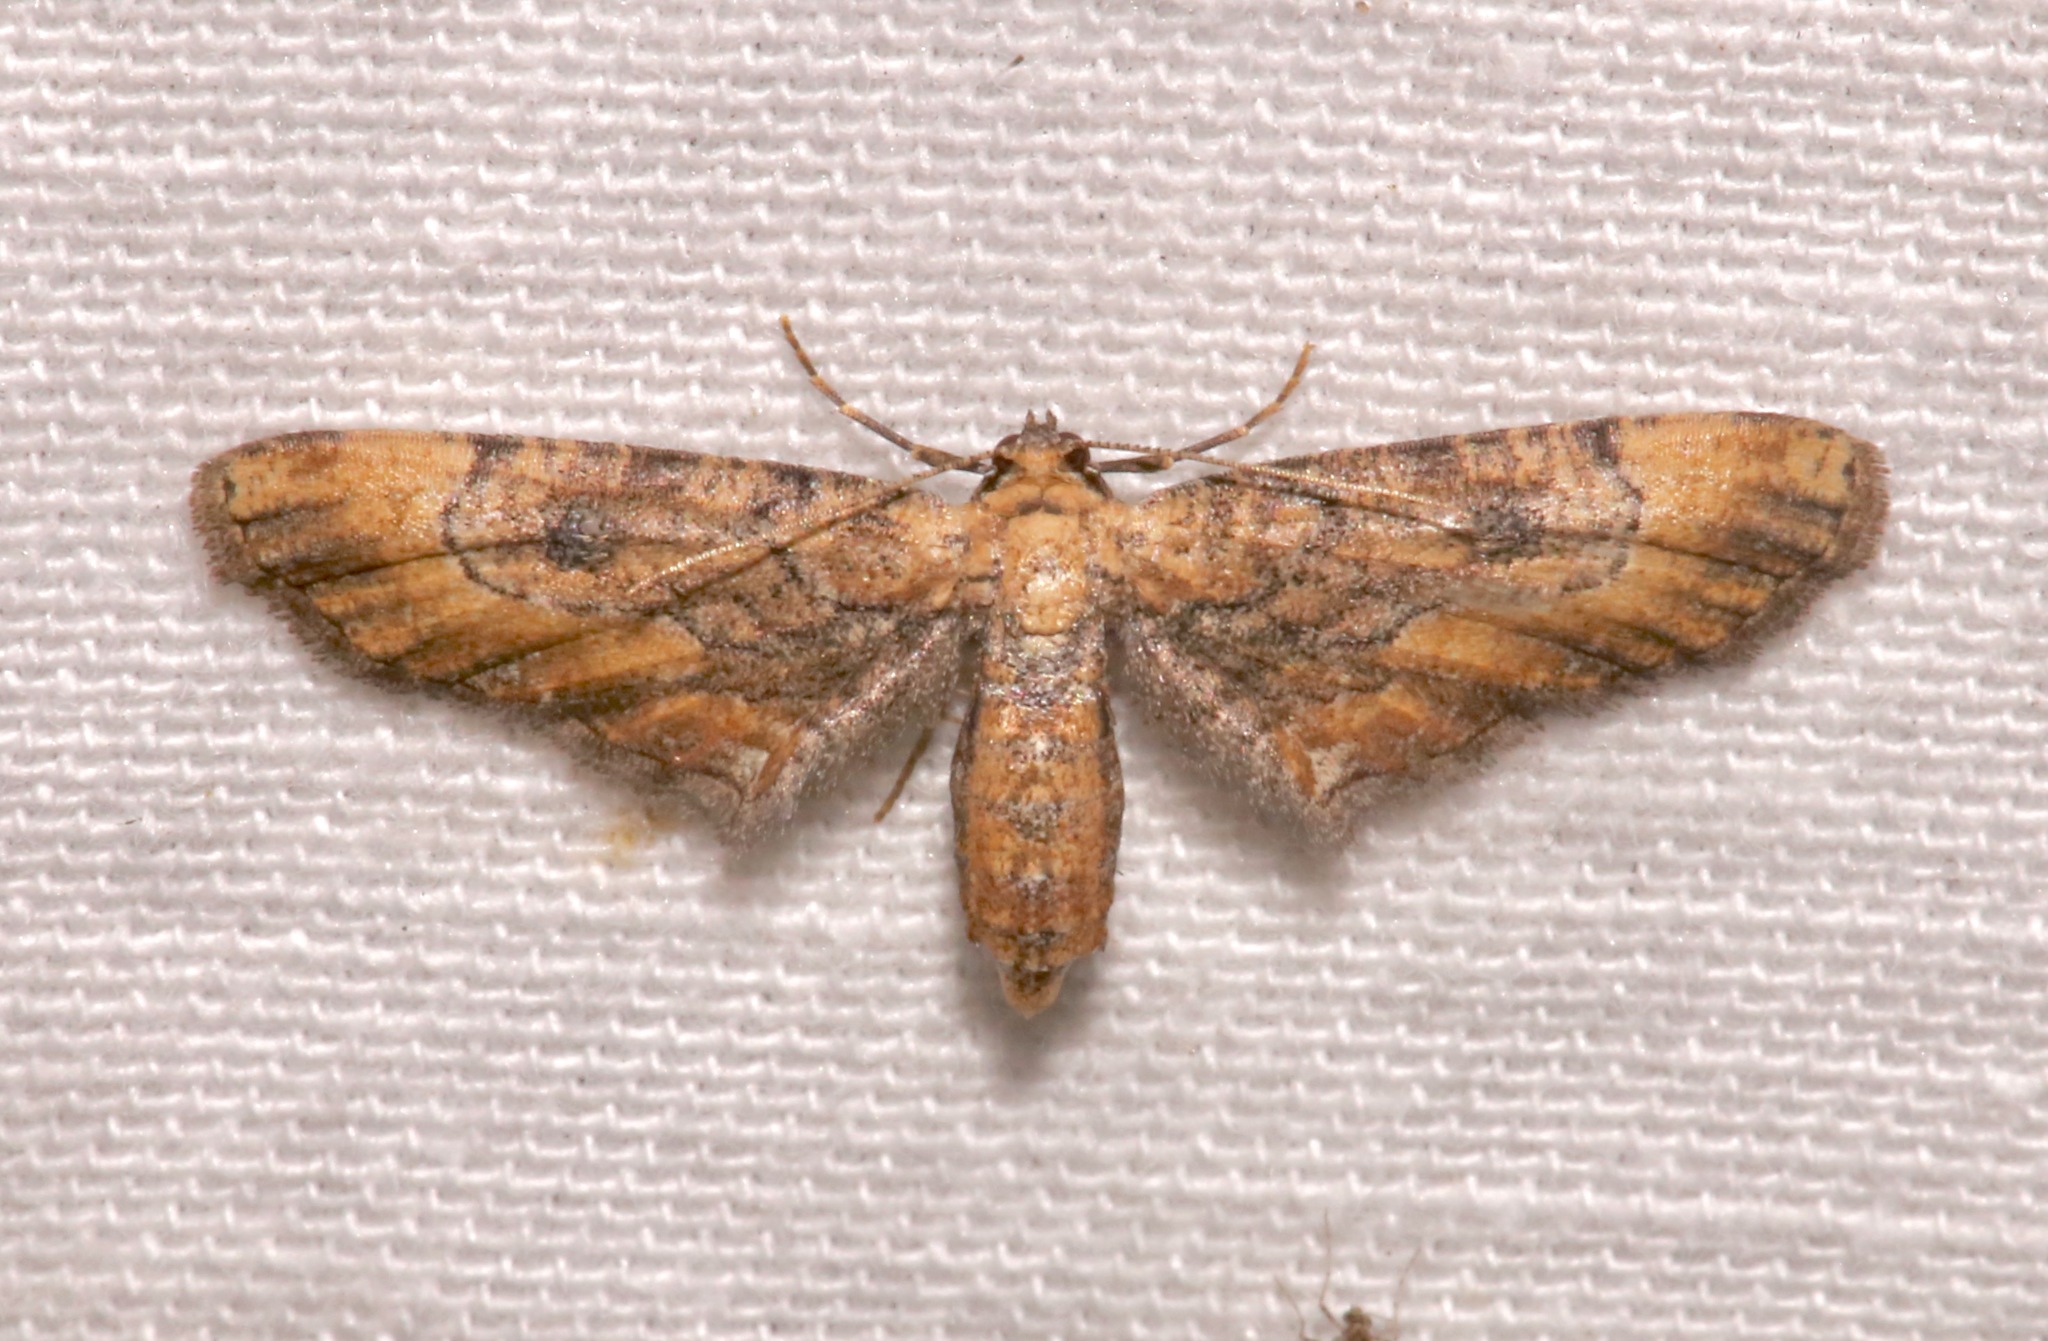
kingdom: Animalia
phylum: Arthropoda
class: Insecta
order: Lepidoptera
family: Geometridae
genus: Tornos
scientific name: Tornos erectarius
